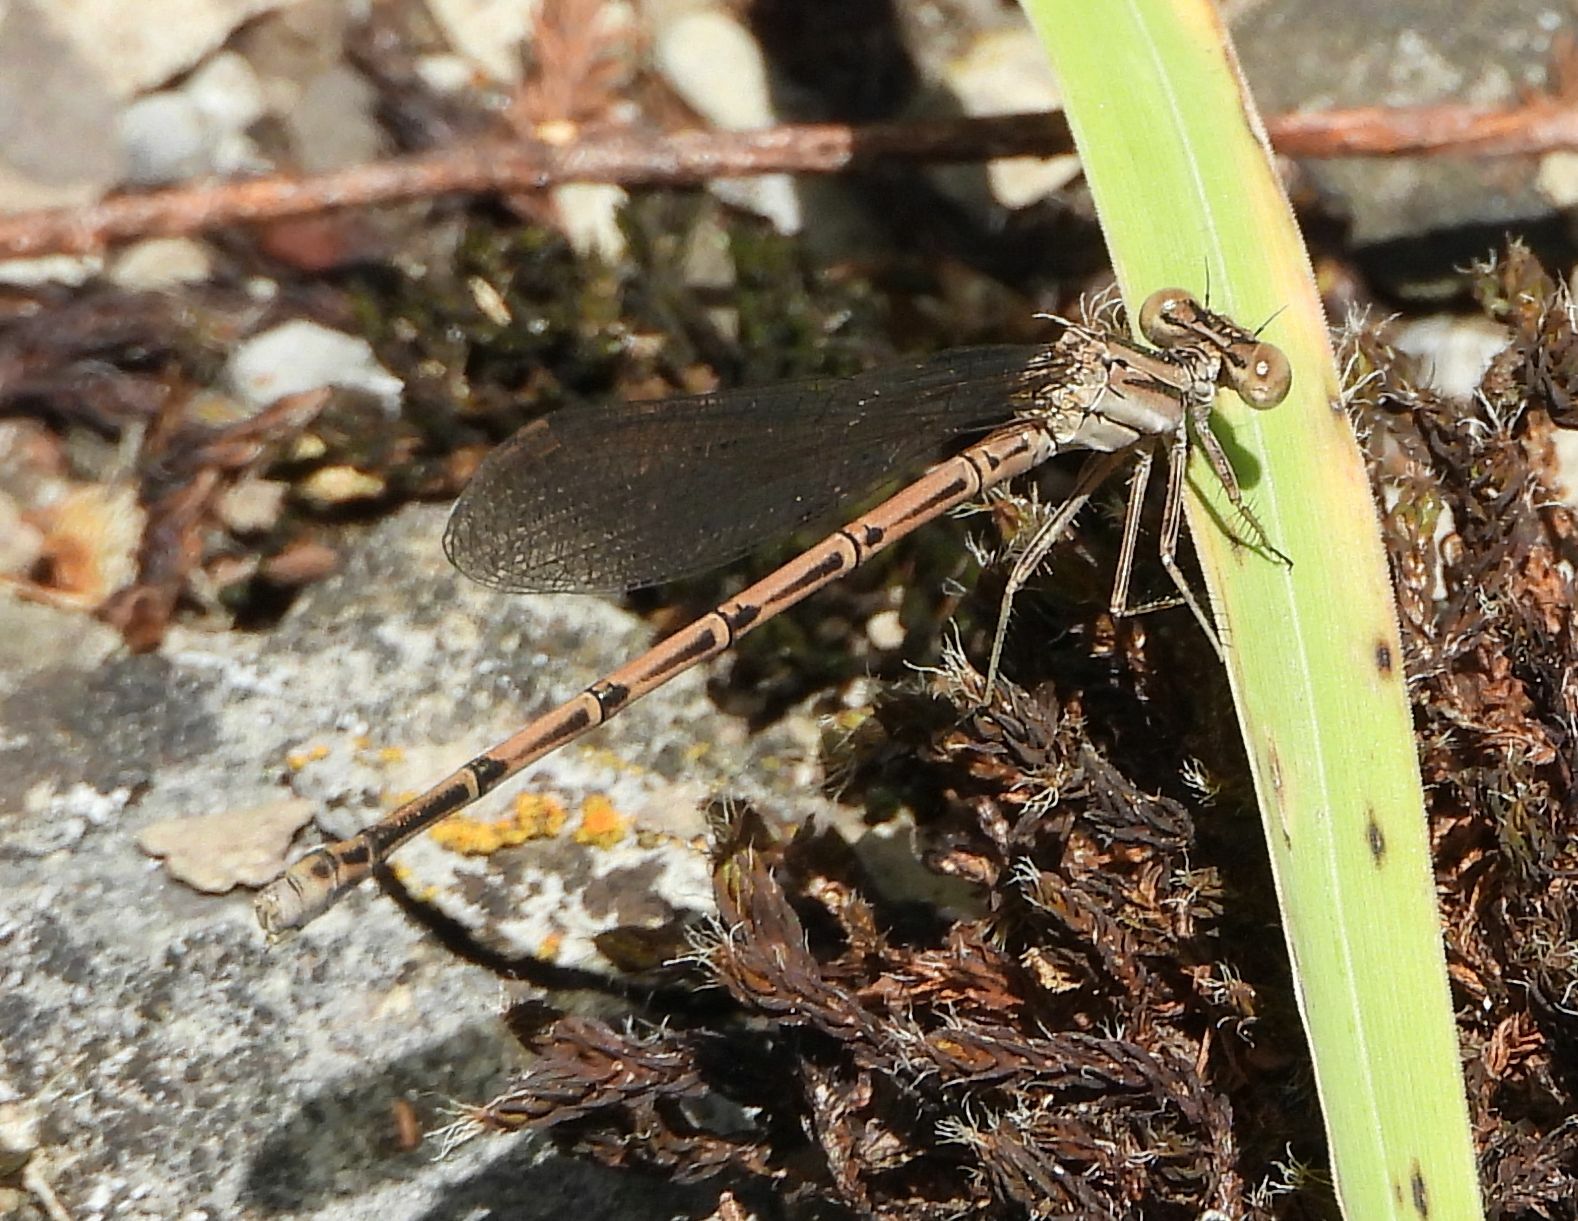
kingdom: Animalia
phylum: Arthropoda
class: Insecta
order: Odonata
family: Coenagrionidae
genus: Argia
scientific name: Argia fumipennis
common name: Variable dancer
